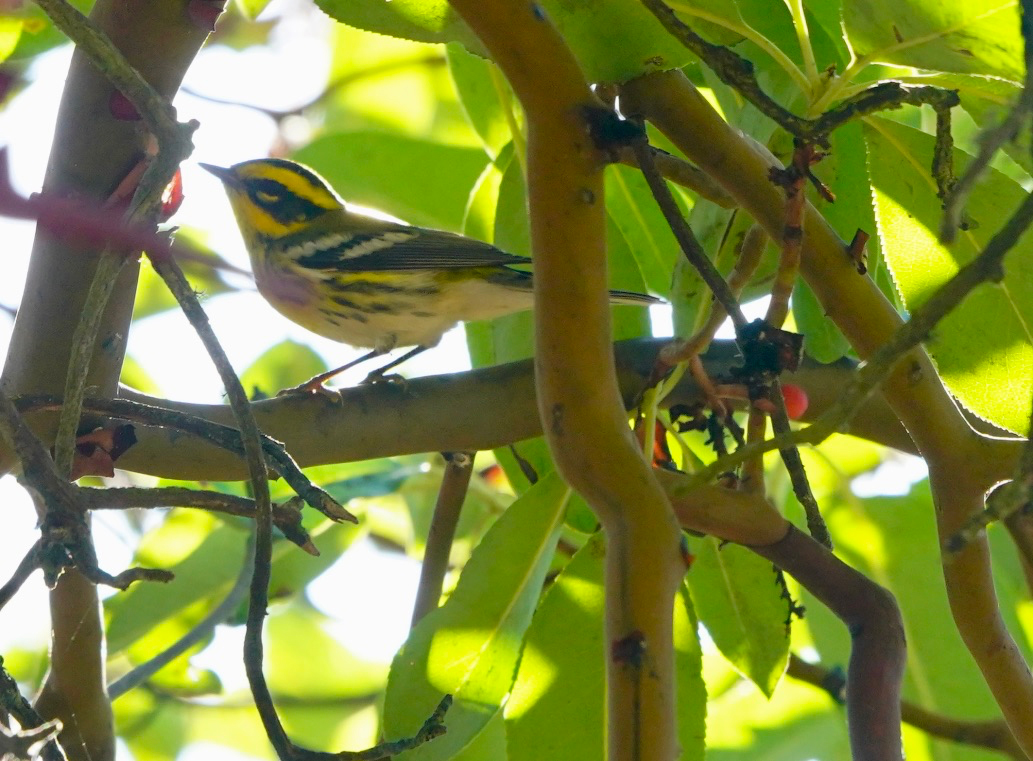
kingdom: Animalia
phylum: Chordata
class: Aves
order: Passeriformes
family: Parulidae
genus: Setophaga
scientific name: Setophaga townsendi
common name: Townsend's warbler
